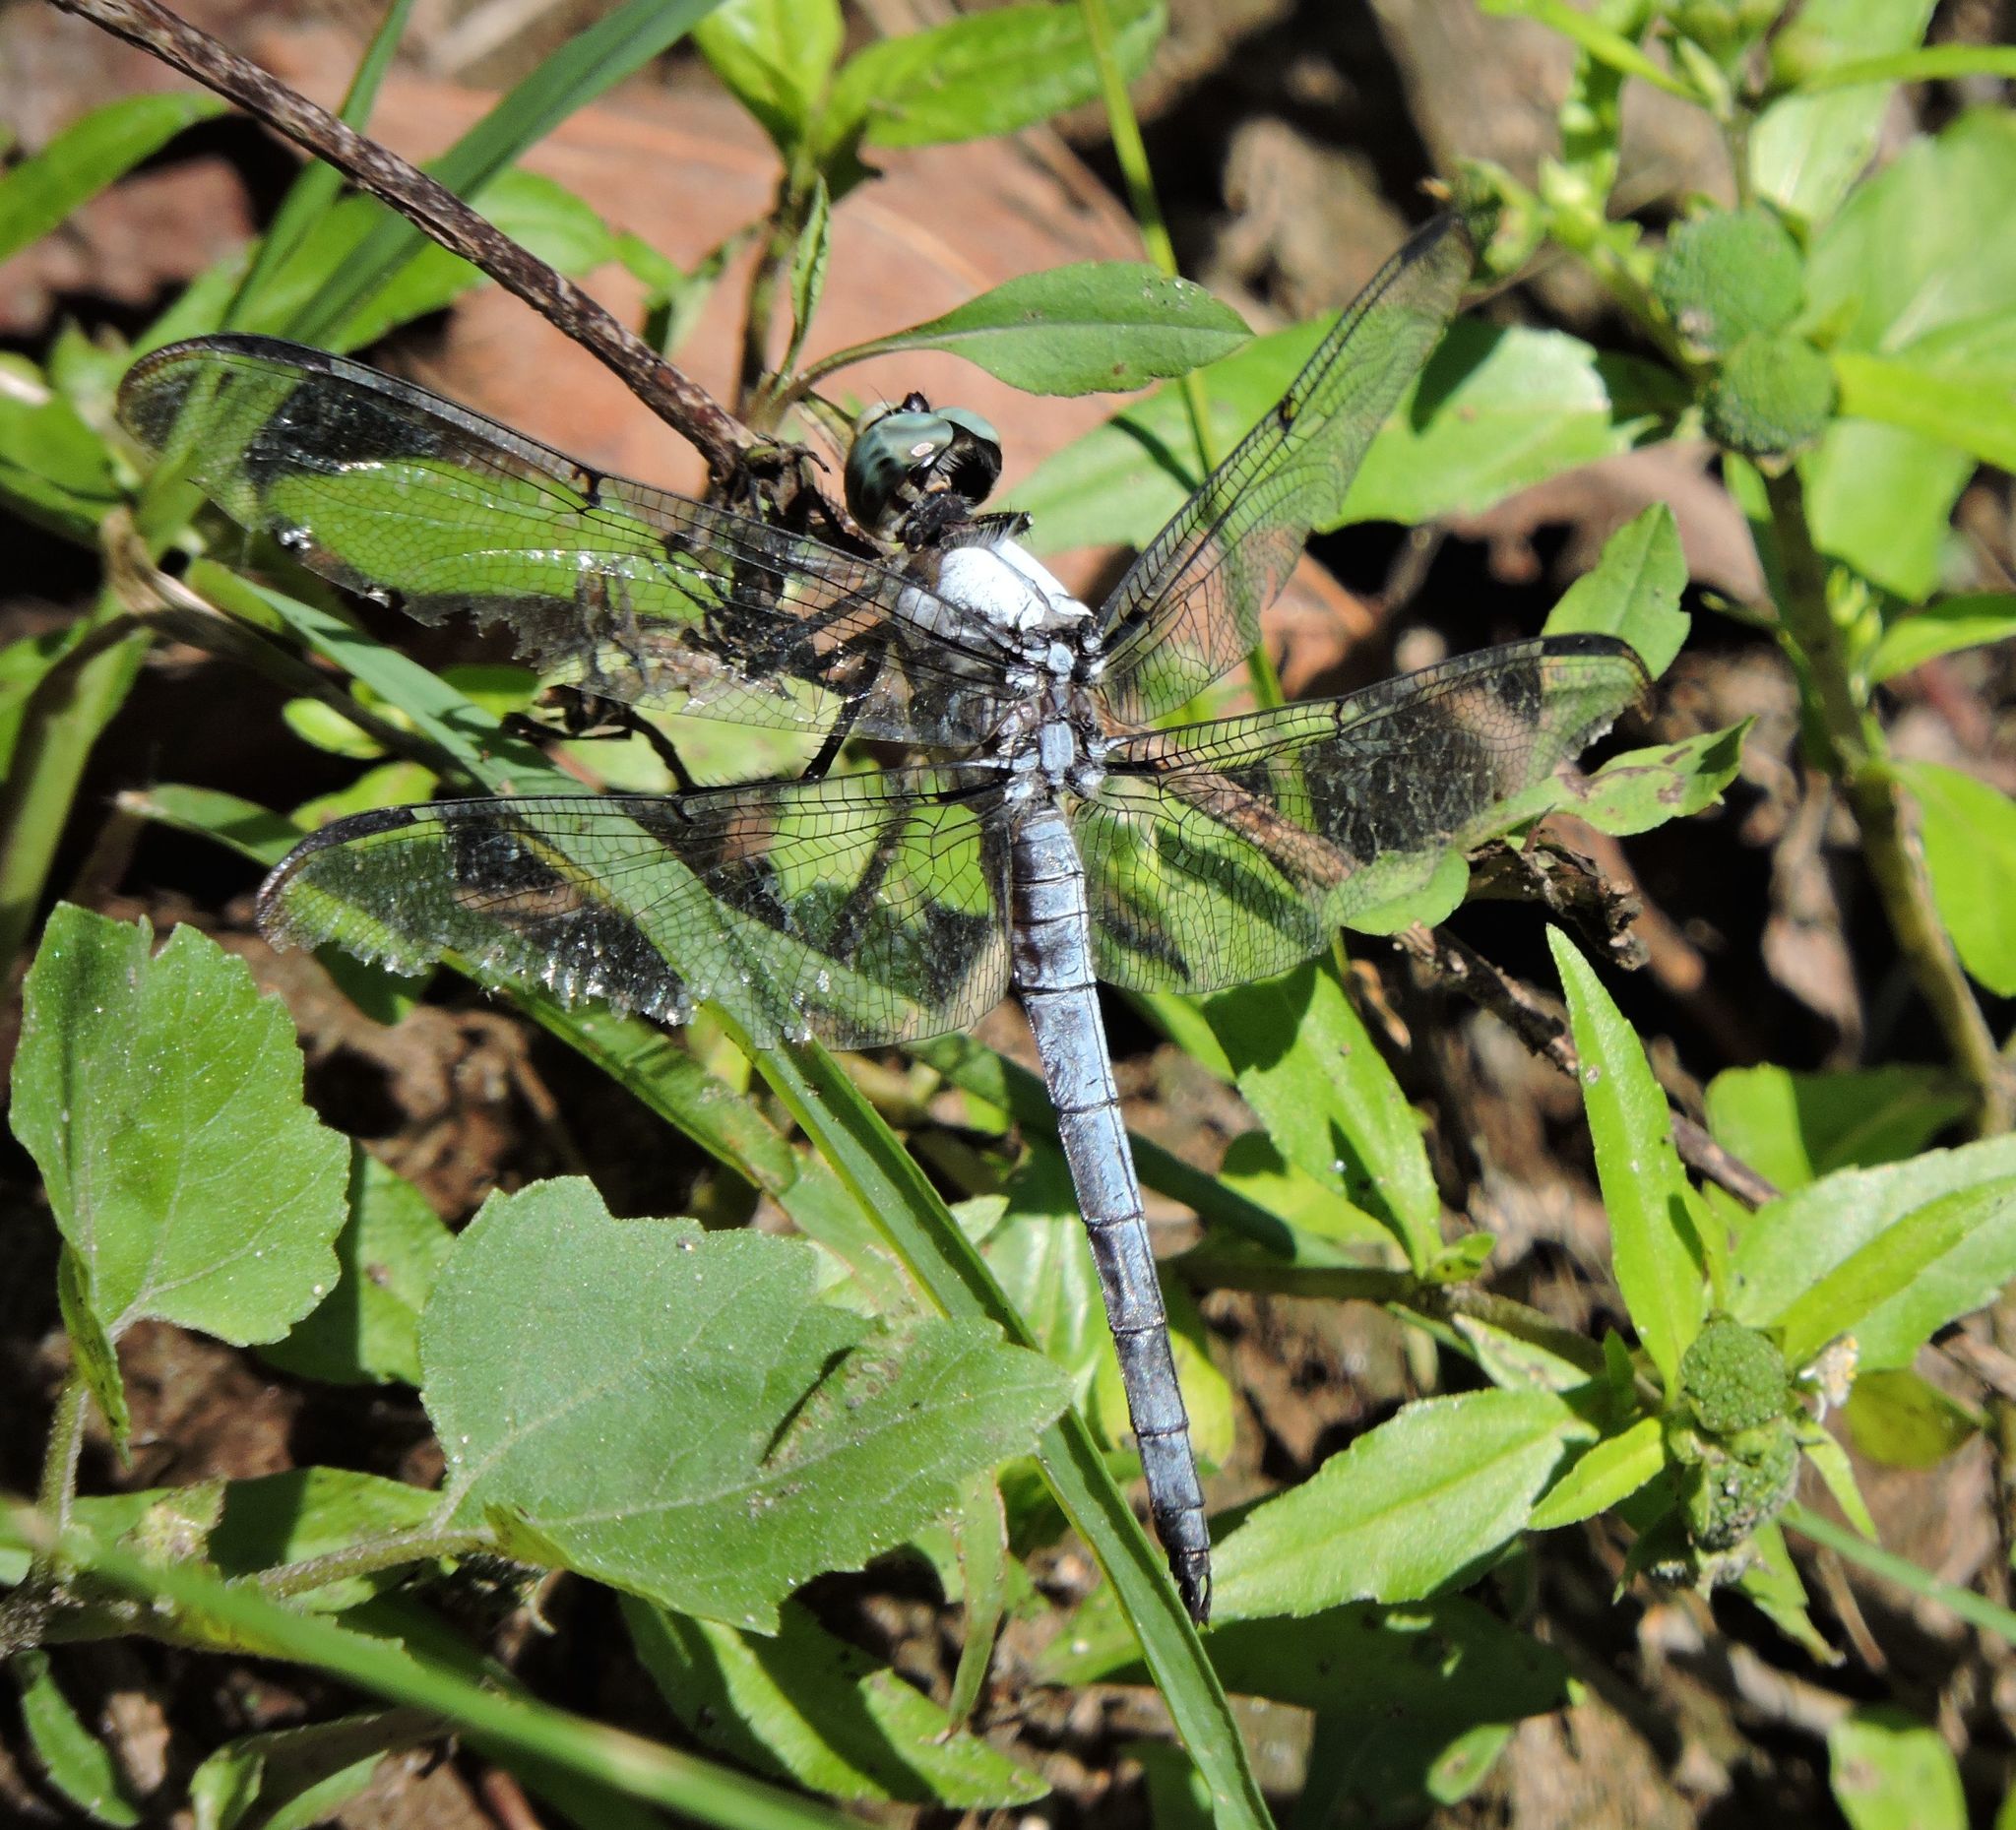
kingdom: Animalia
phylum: Arthropoda
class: Insecta
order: Odonata
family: Libellulidae
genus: Libellula
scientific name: Libellula vibrans
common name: Great blue skimmer
